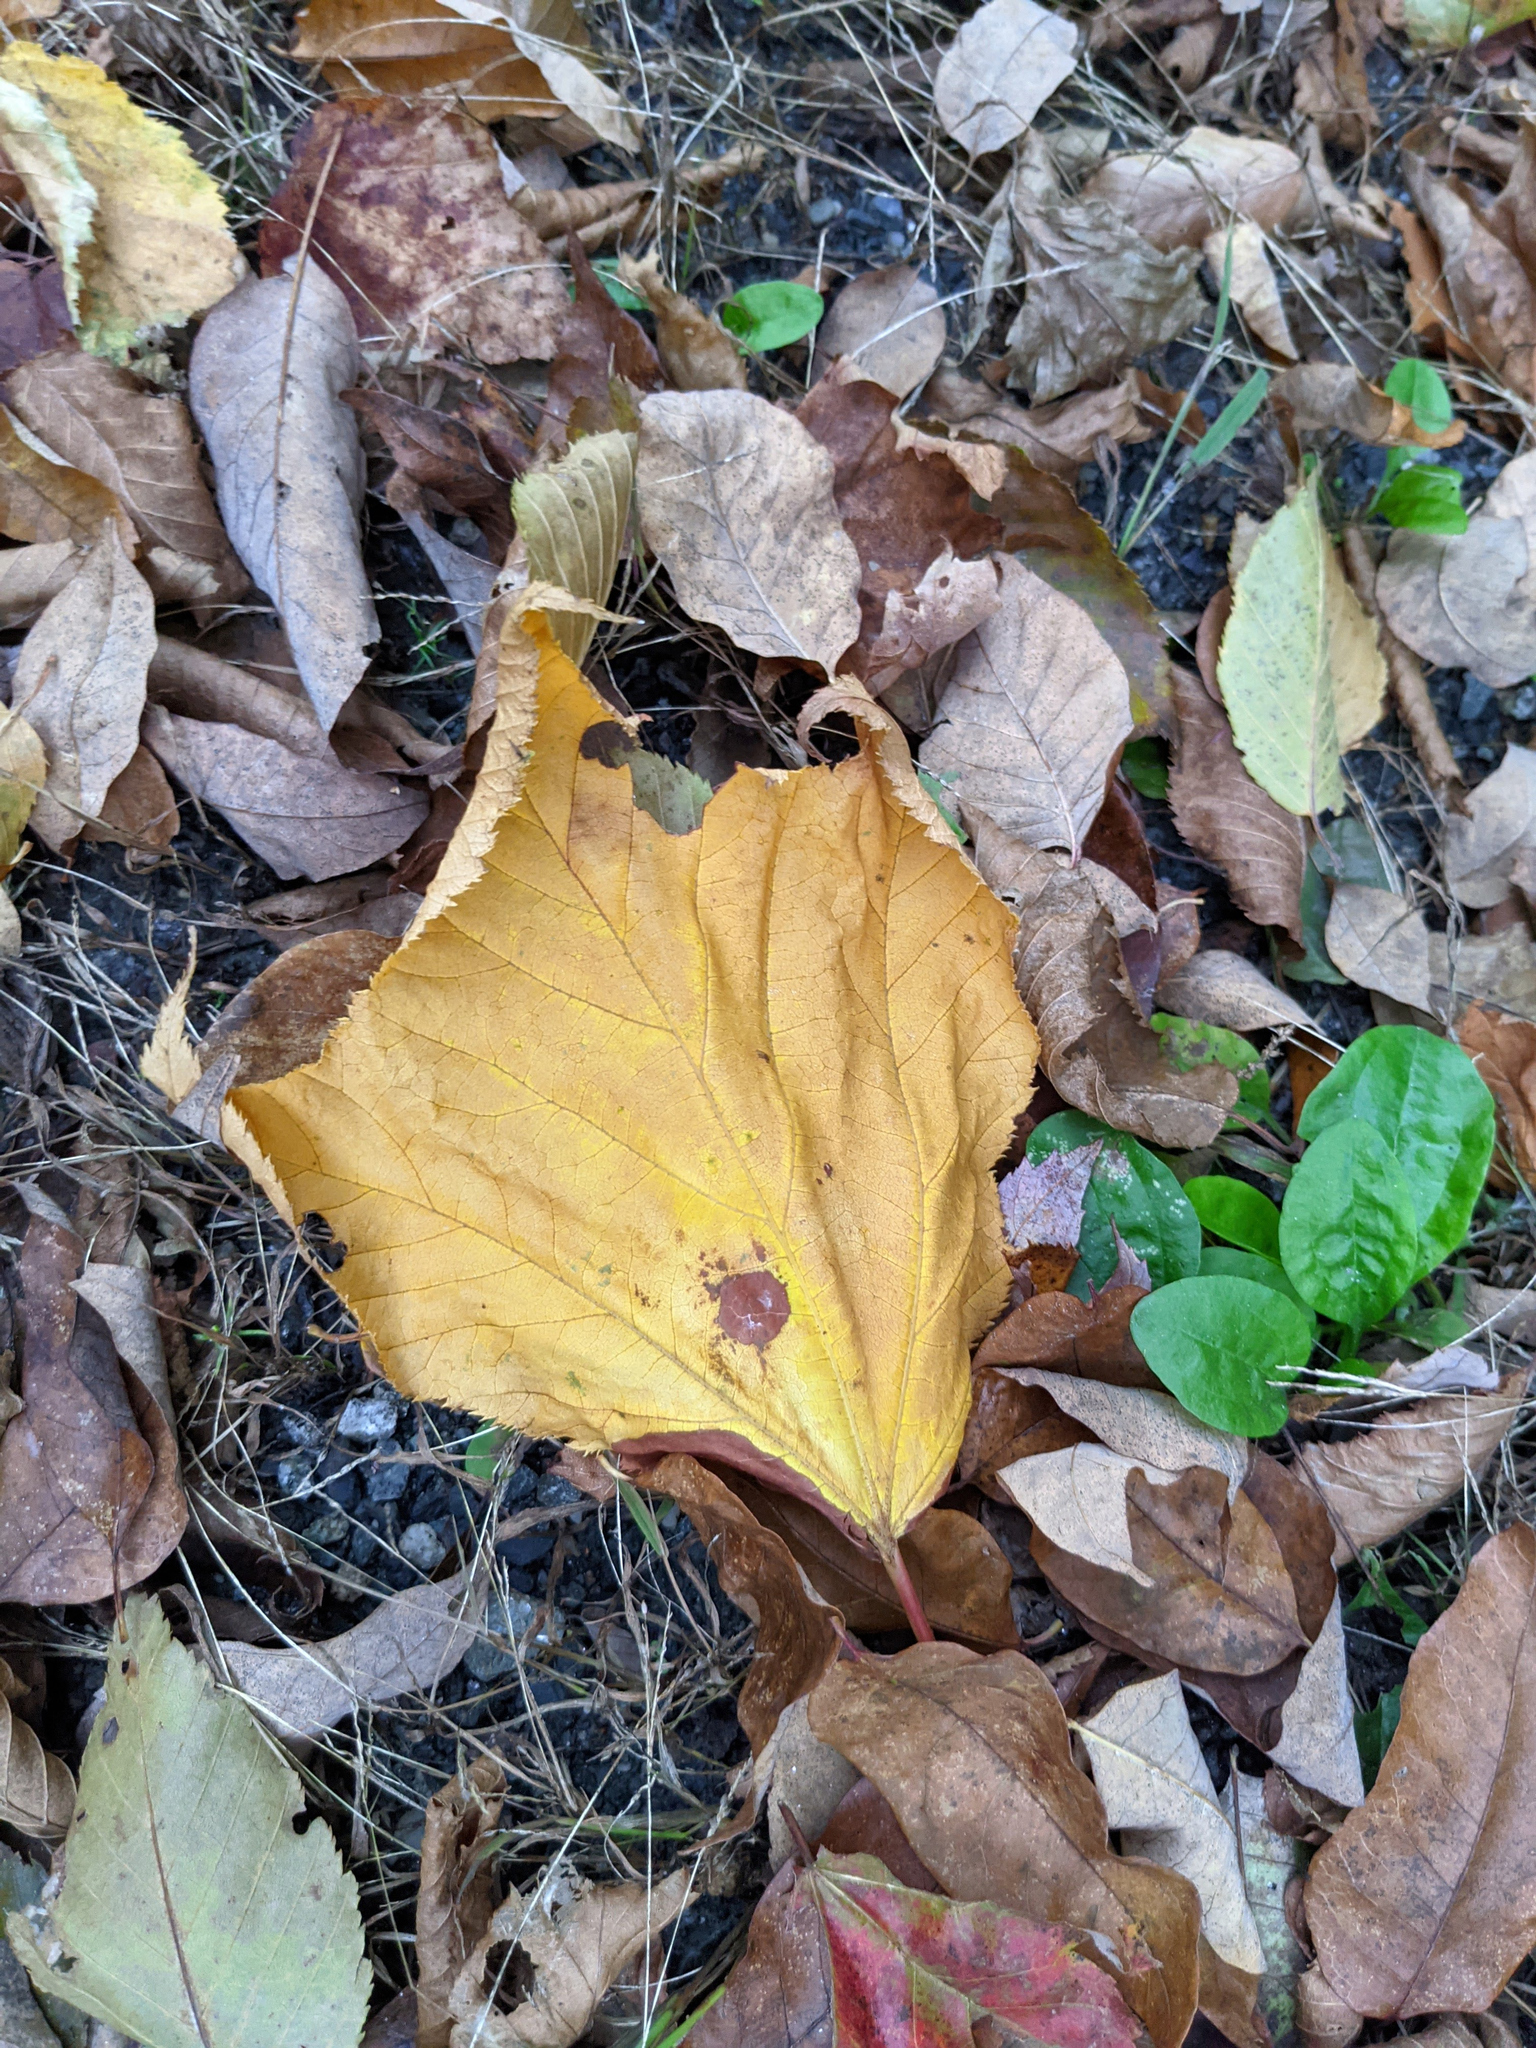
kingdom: Plantae
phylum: Tracheophyta
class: Magnoliopsida
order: Sapindales
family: Sapindaceae
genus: Acer
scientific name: Acer pensylvanicum
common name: Moosewood
